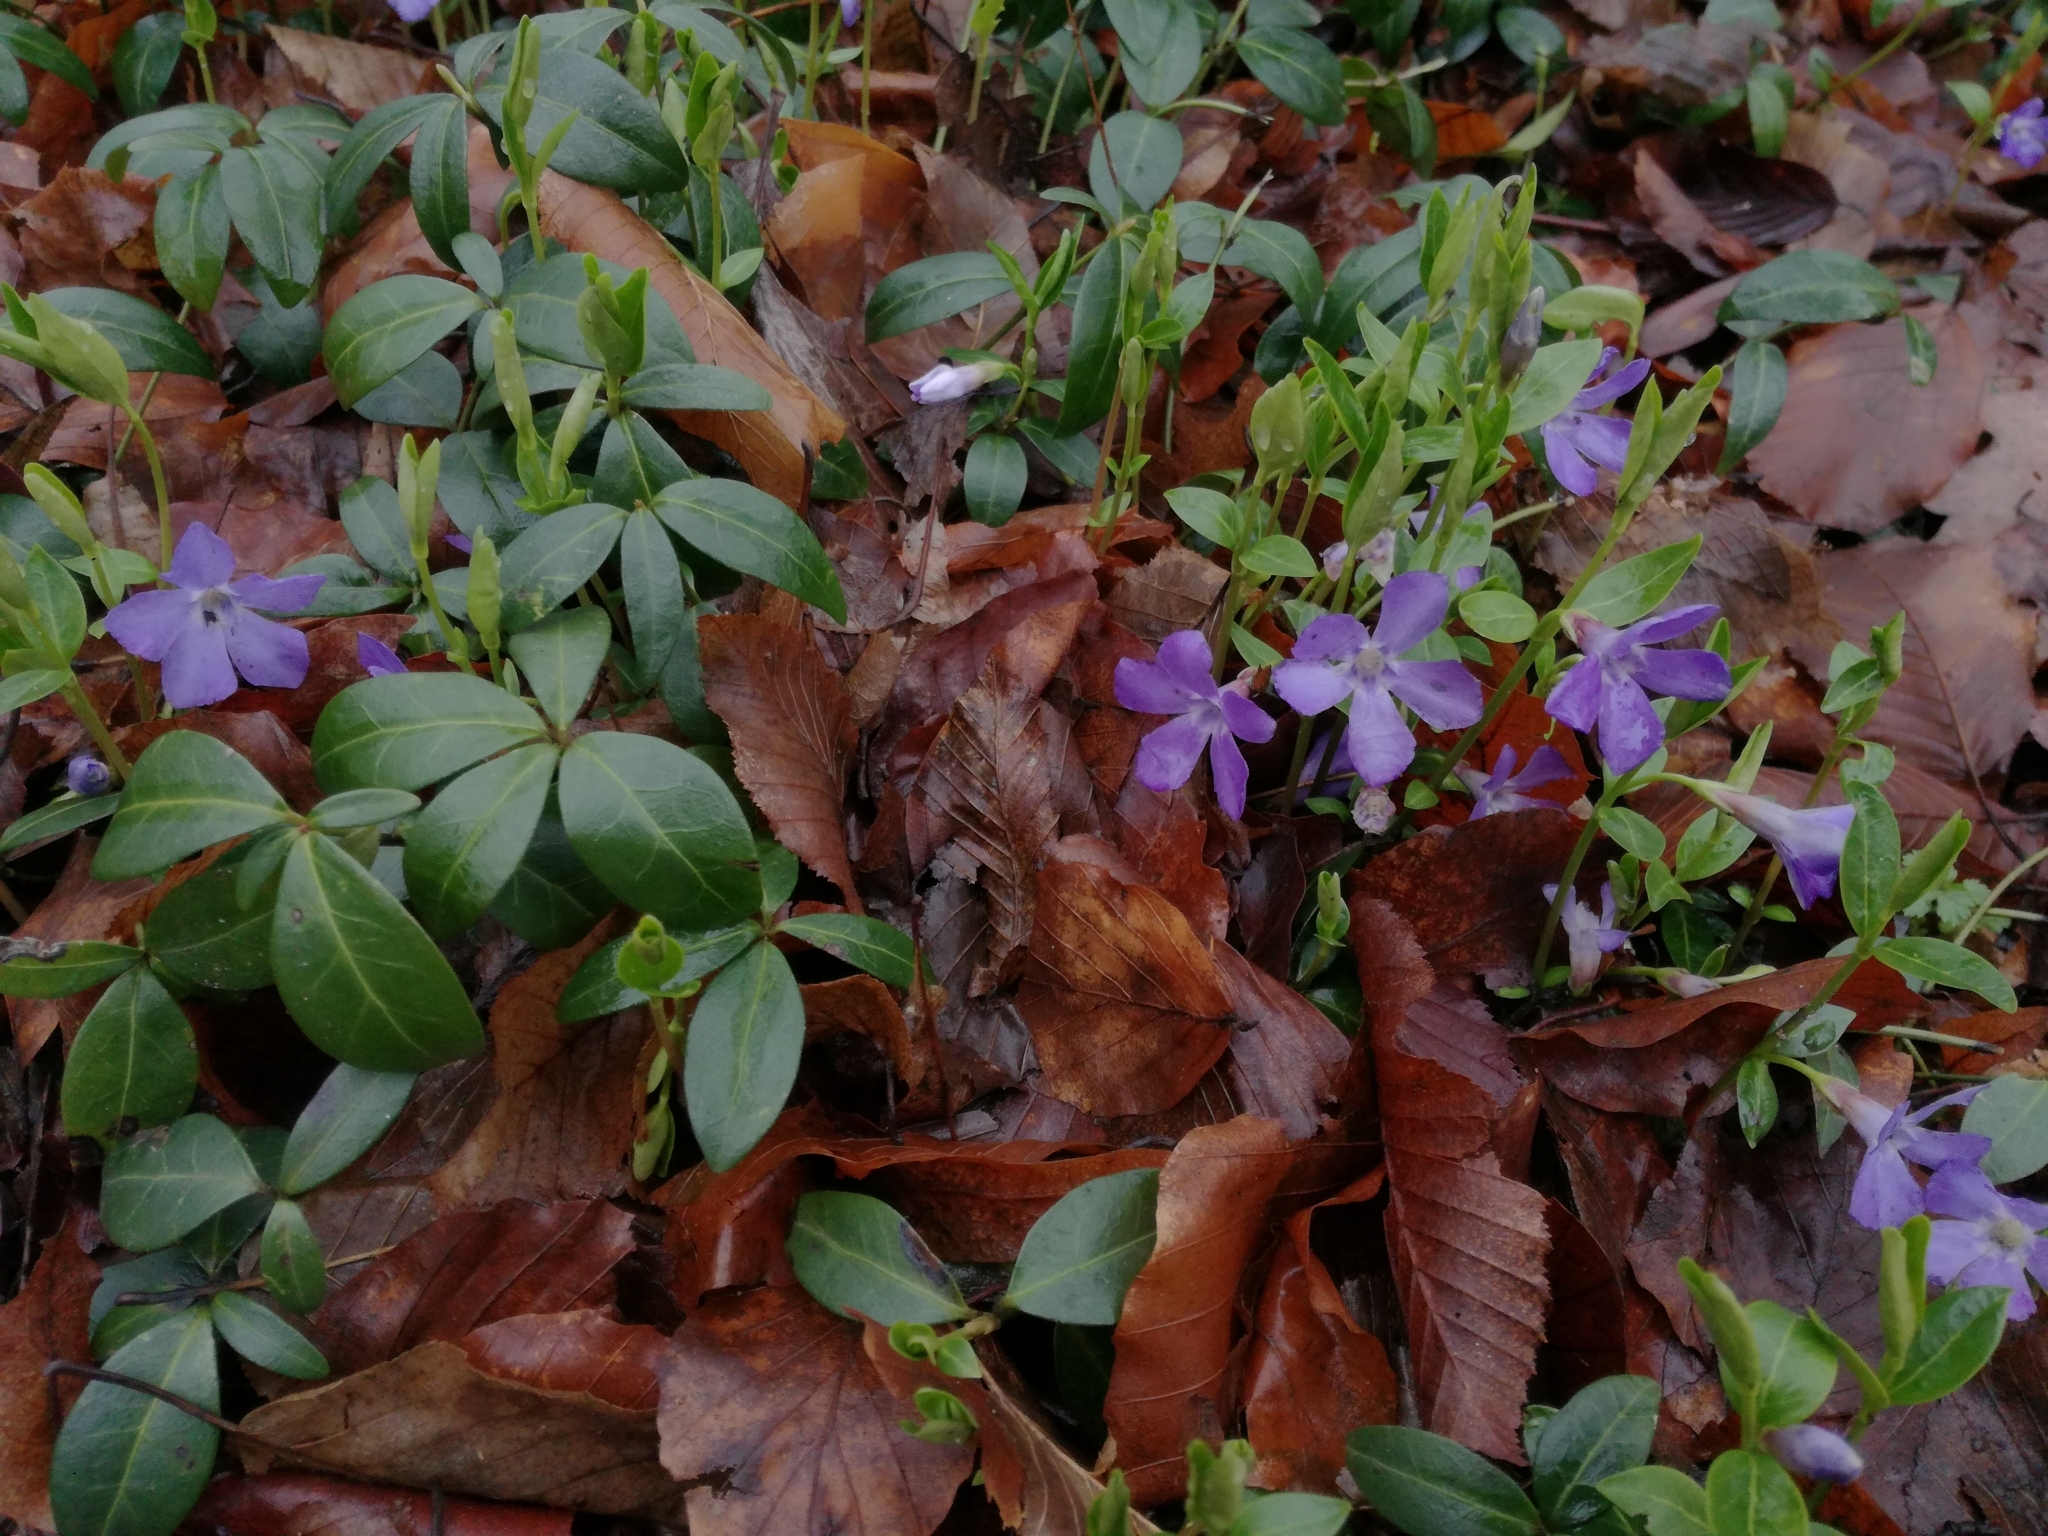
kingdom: Plantae
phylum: Tracheophyta
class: Magnoliopsida
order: Gentianales
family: Apocynaceae
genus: Vinca
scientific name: Vinca minor
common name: Lesser periwinkle
